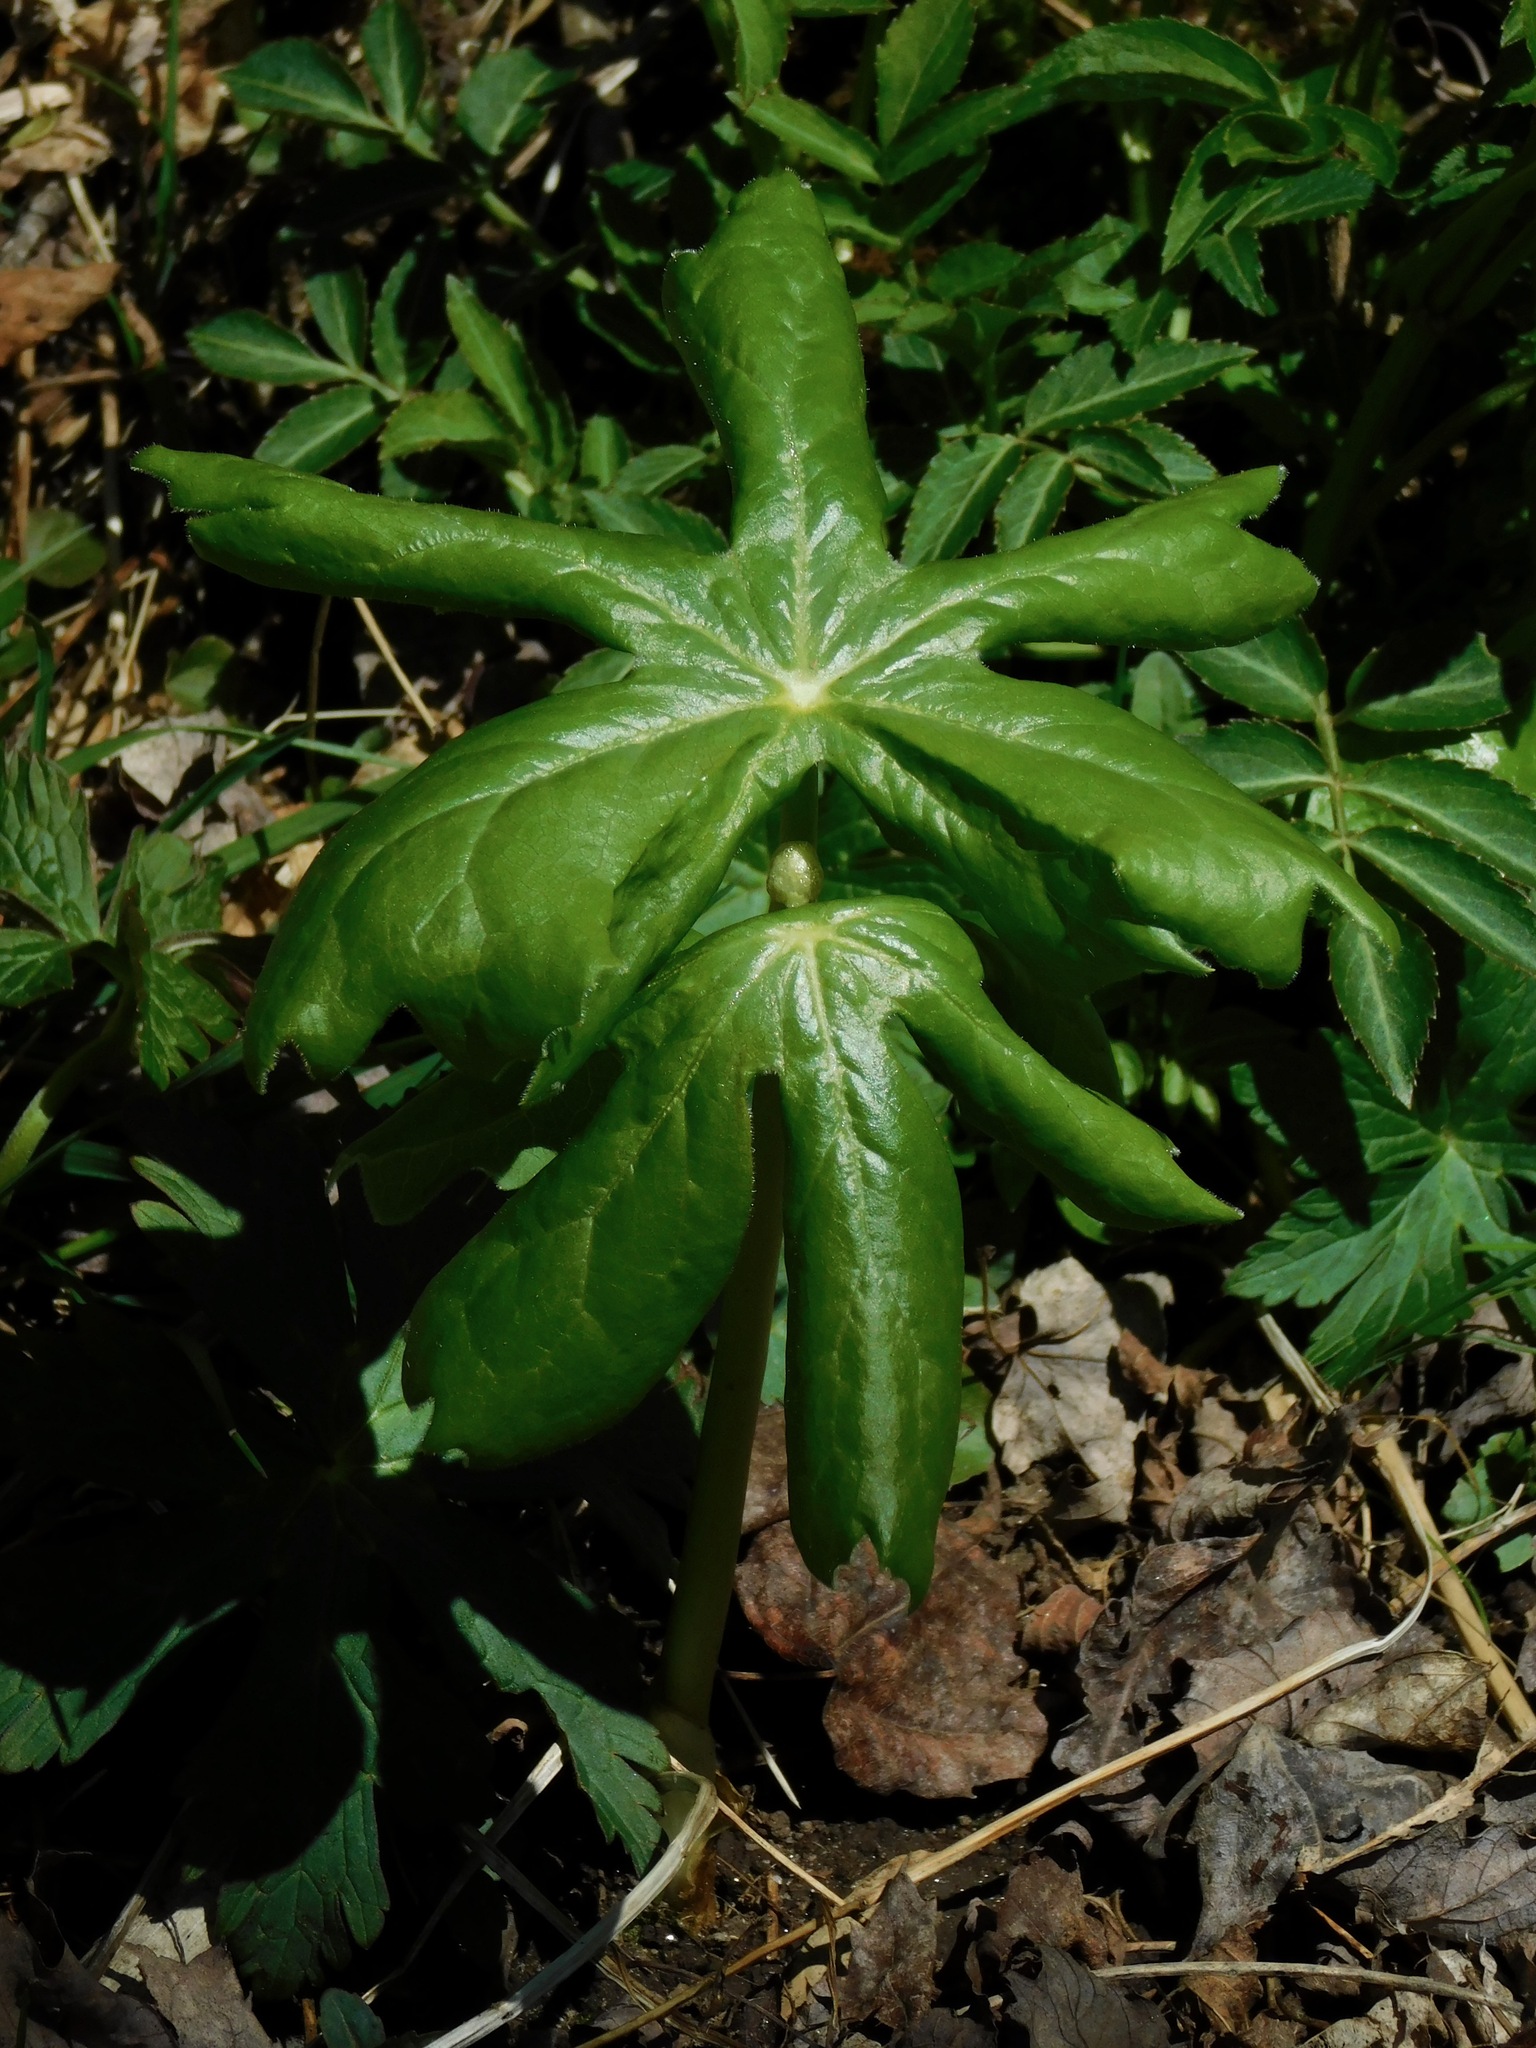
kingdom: Plantae
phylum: Tracheophyta
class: Magnoliopsida
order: Ranunculales
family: Berberidaceae
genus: Podophyllum
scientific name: Podophyllum peltatum
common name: Wild mandrake
